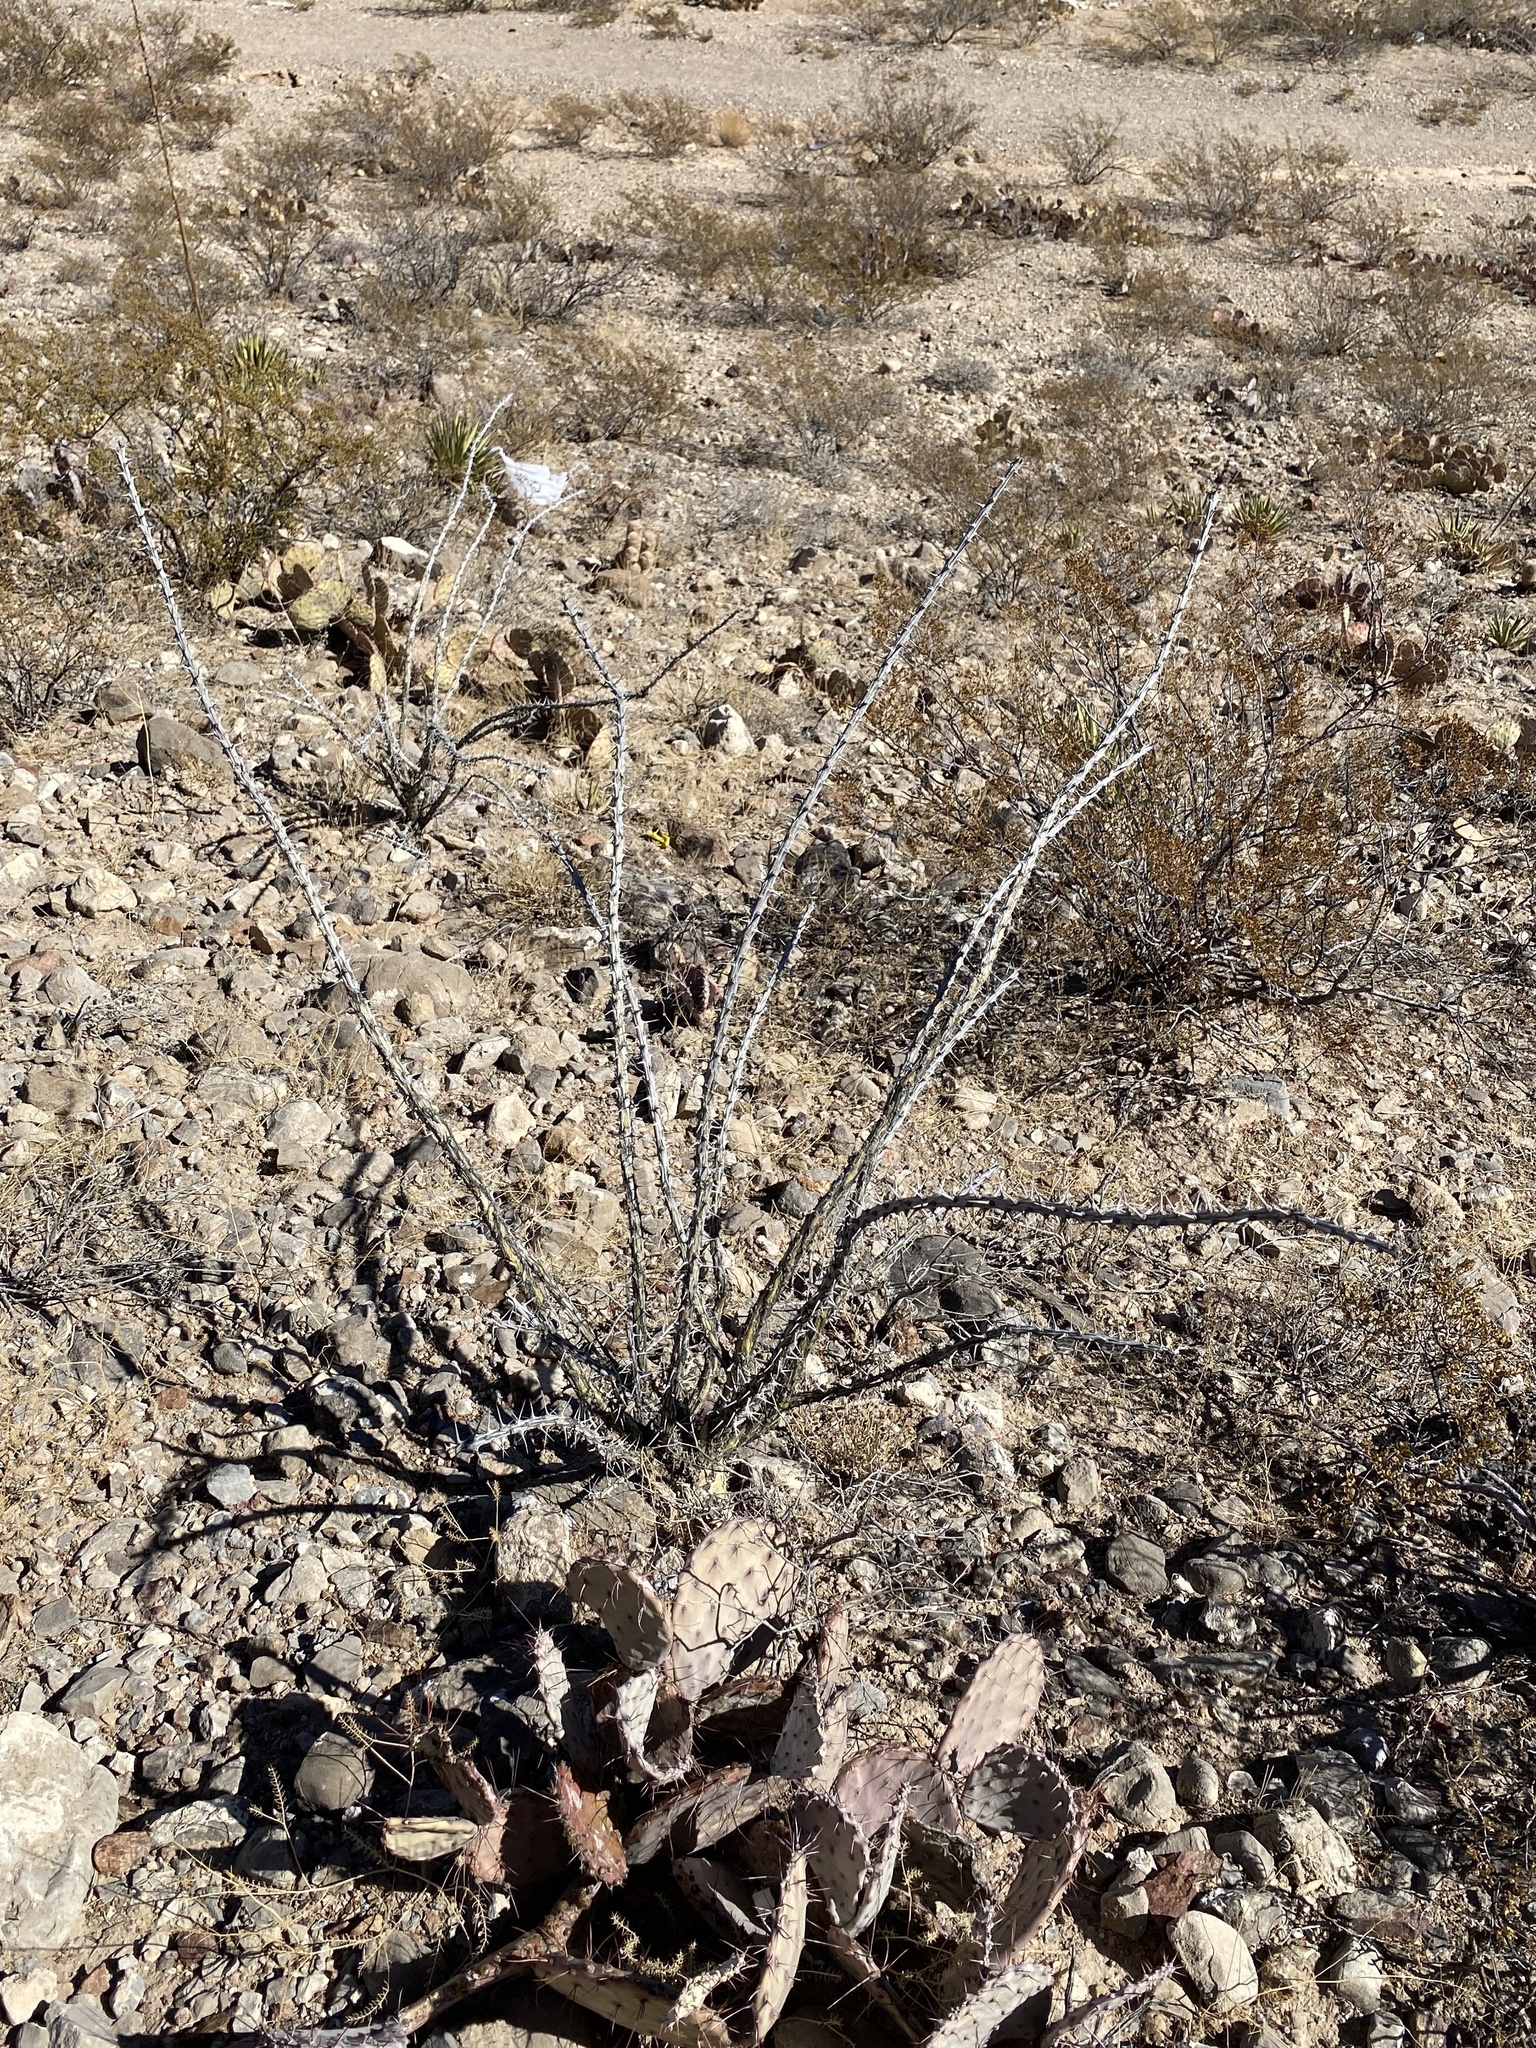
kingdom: Plantae
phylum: Tracheophyta
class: Magnoliopsida
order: Ericales
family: Fouquieriaceae
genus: Fouquieria
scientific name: Fouquieria splendens
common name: Vine-cactus
